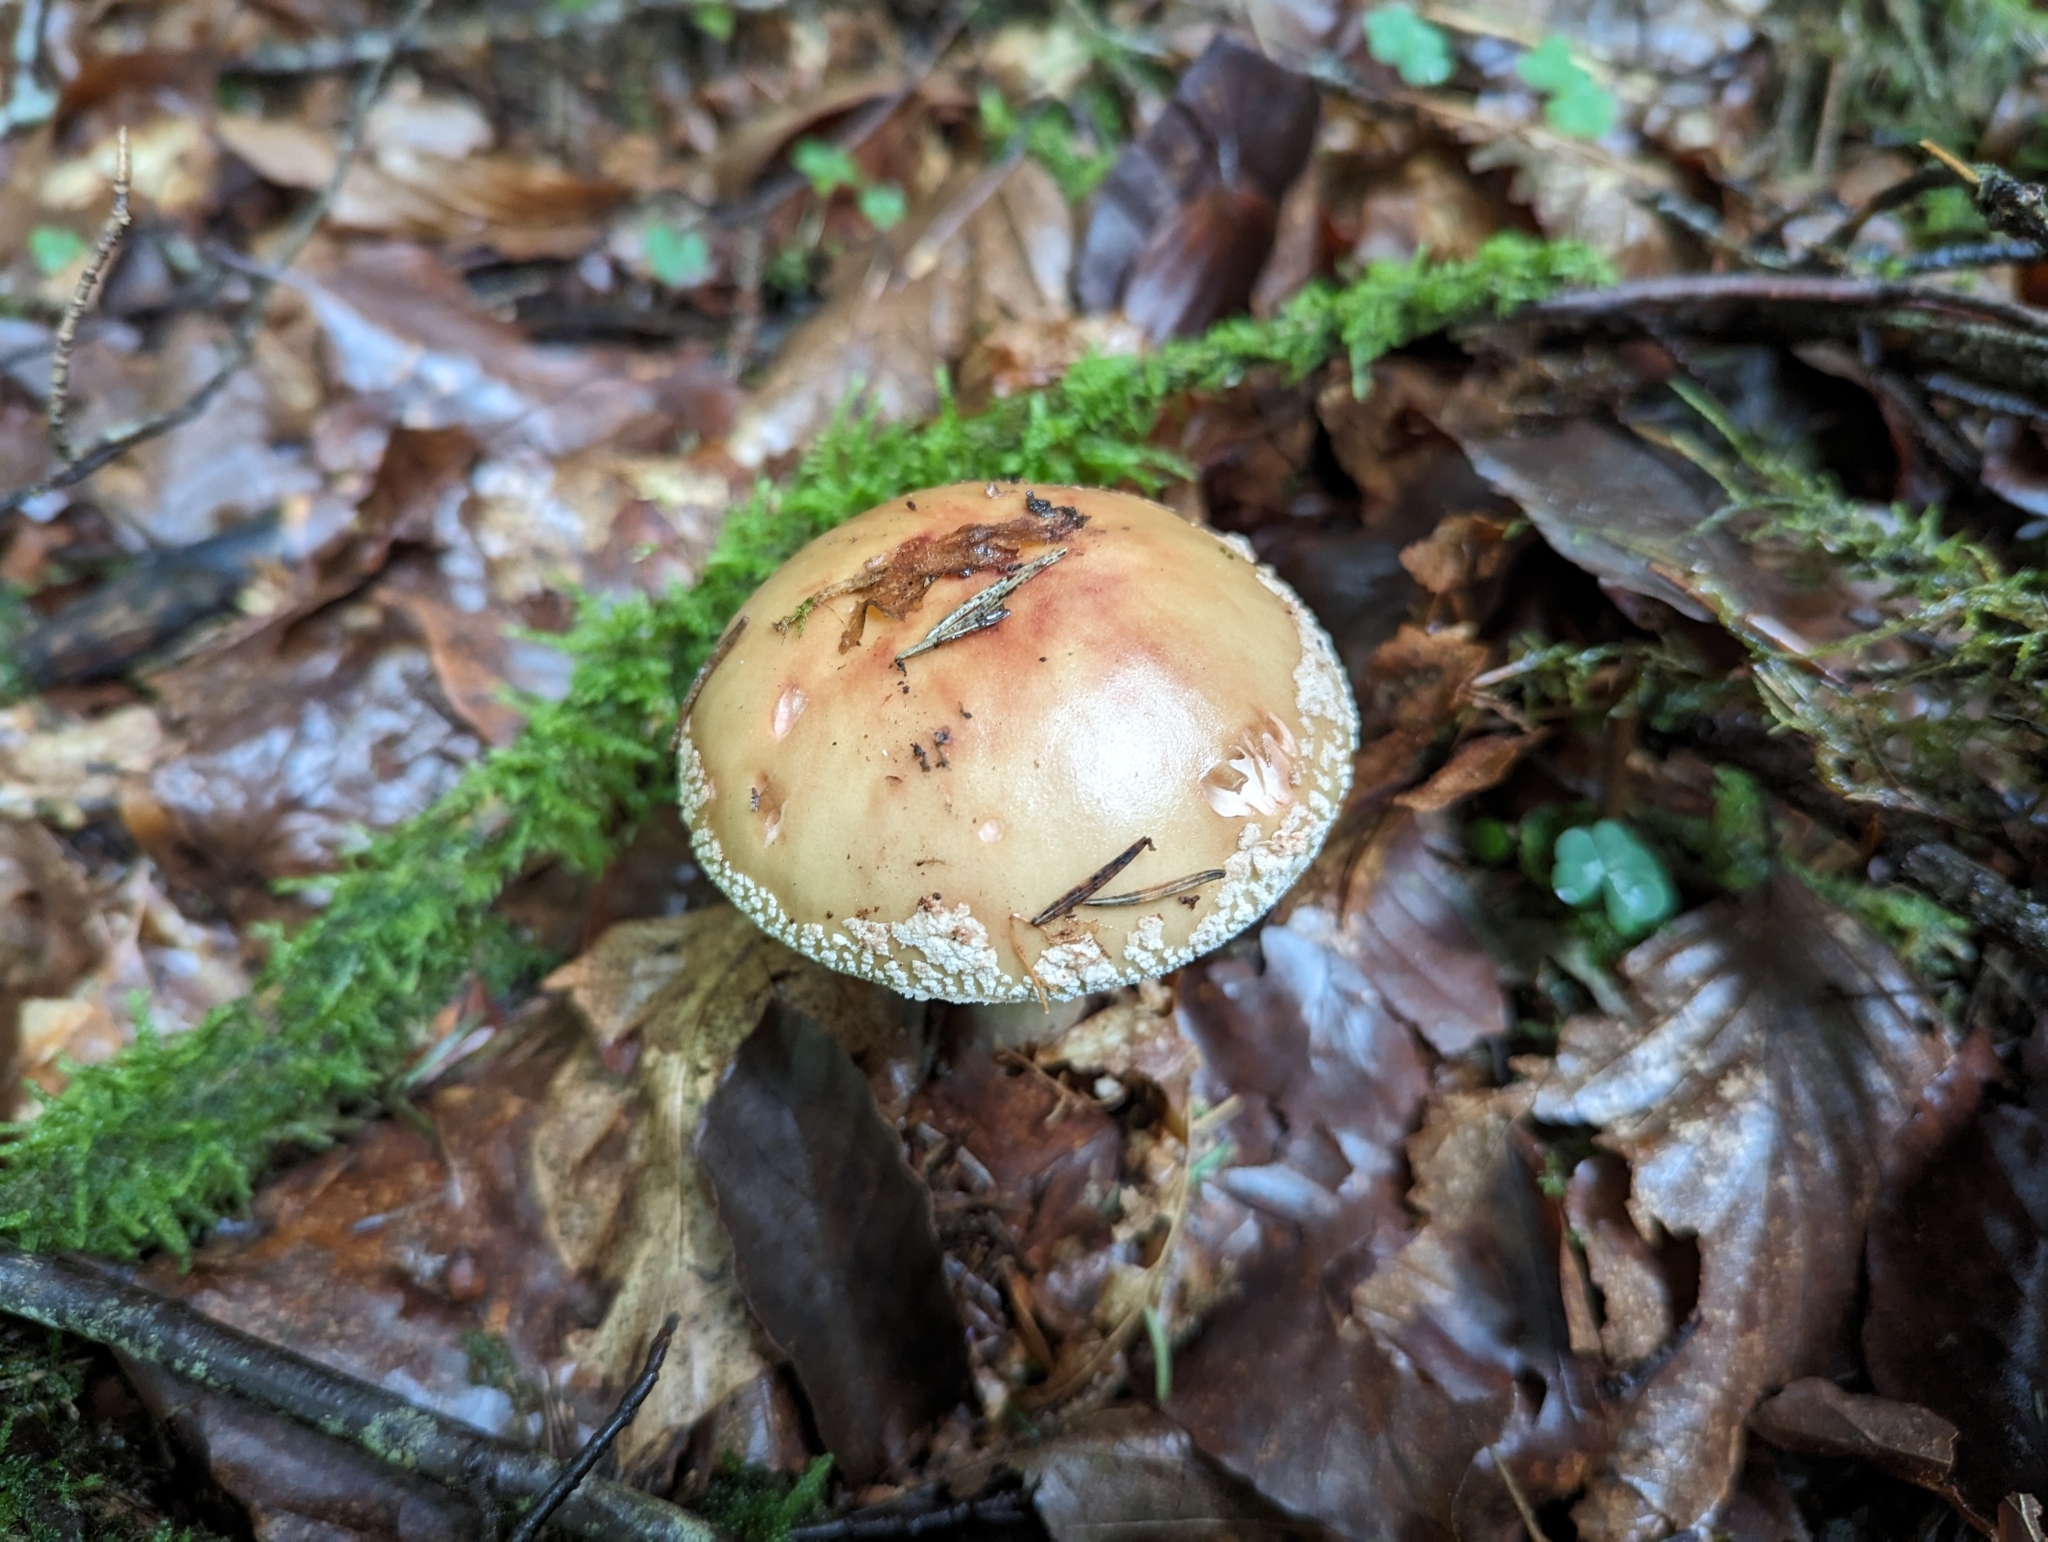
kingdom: Fungi
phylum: Basidiomycota
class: Agaricomycetes
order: Agaricales
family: Amanitaceae
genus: Amanita
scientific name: Amanita rubescens
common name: Blusher
